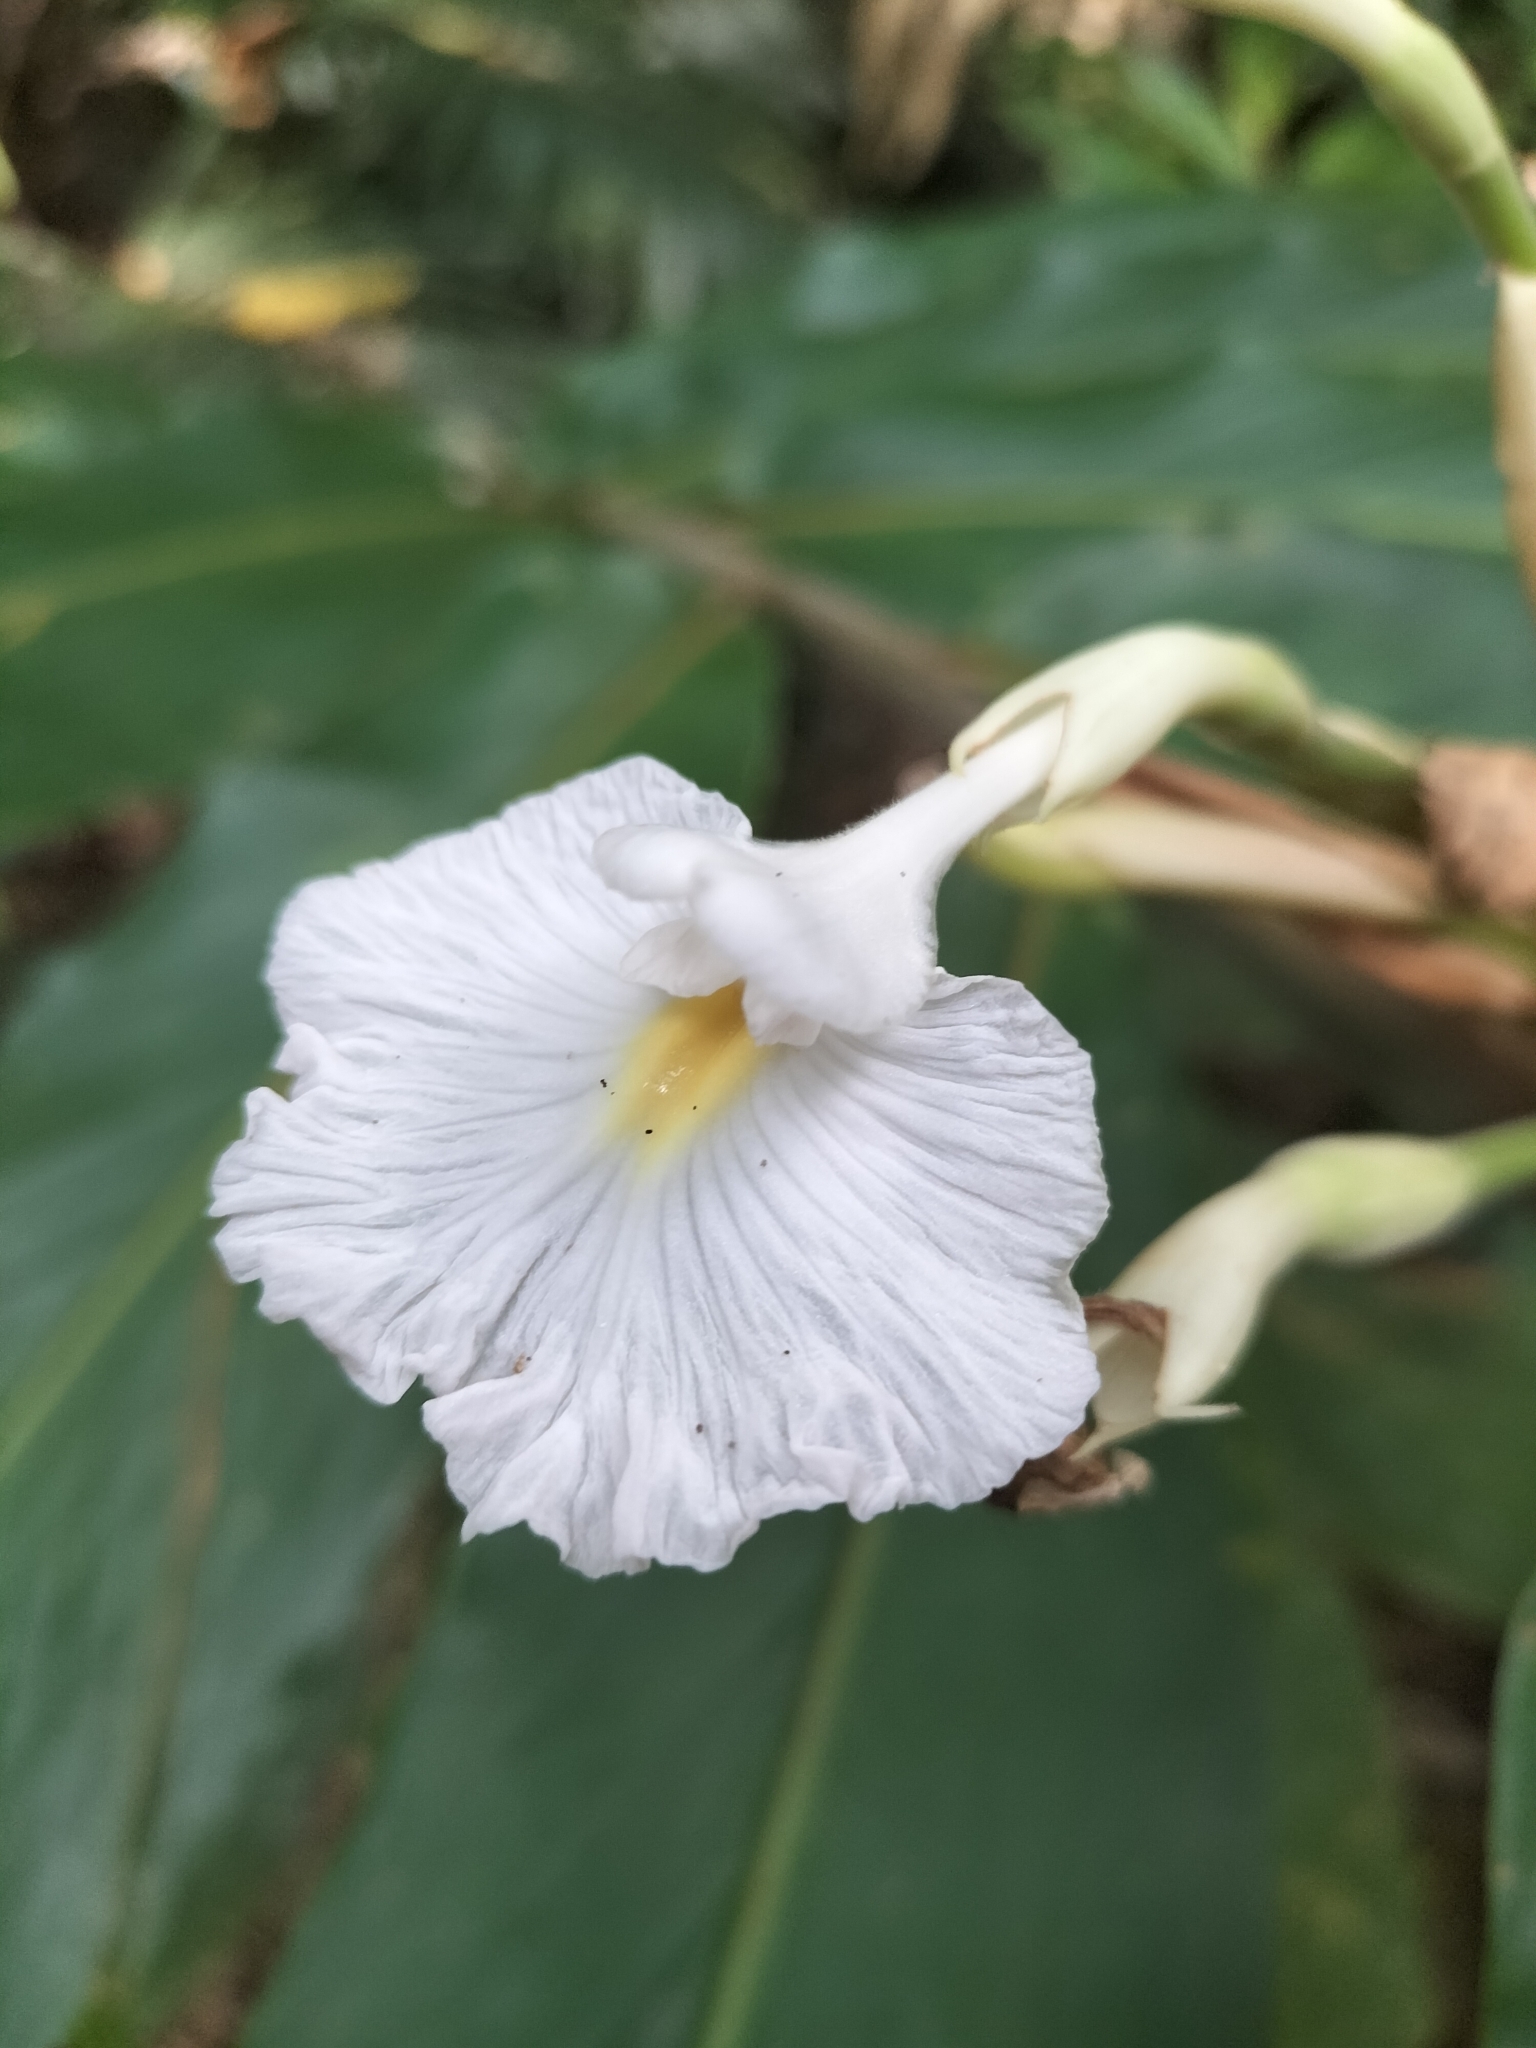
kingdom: Plantae
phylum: Tracheophyta
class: Liliopsida
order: Zingiberales
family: Zingiberaceae
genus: Alpinia
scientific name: Alpinia arctiflora
